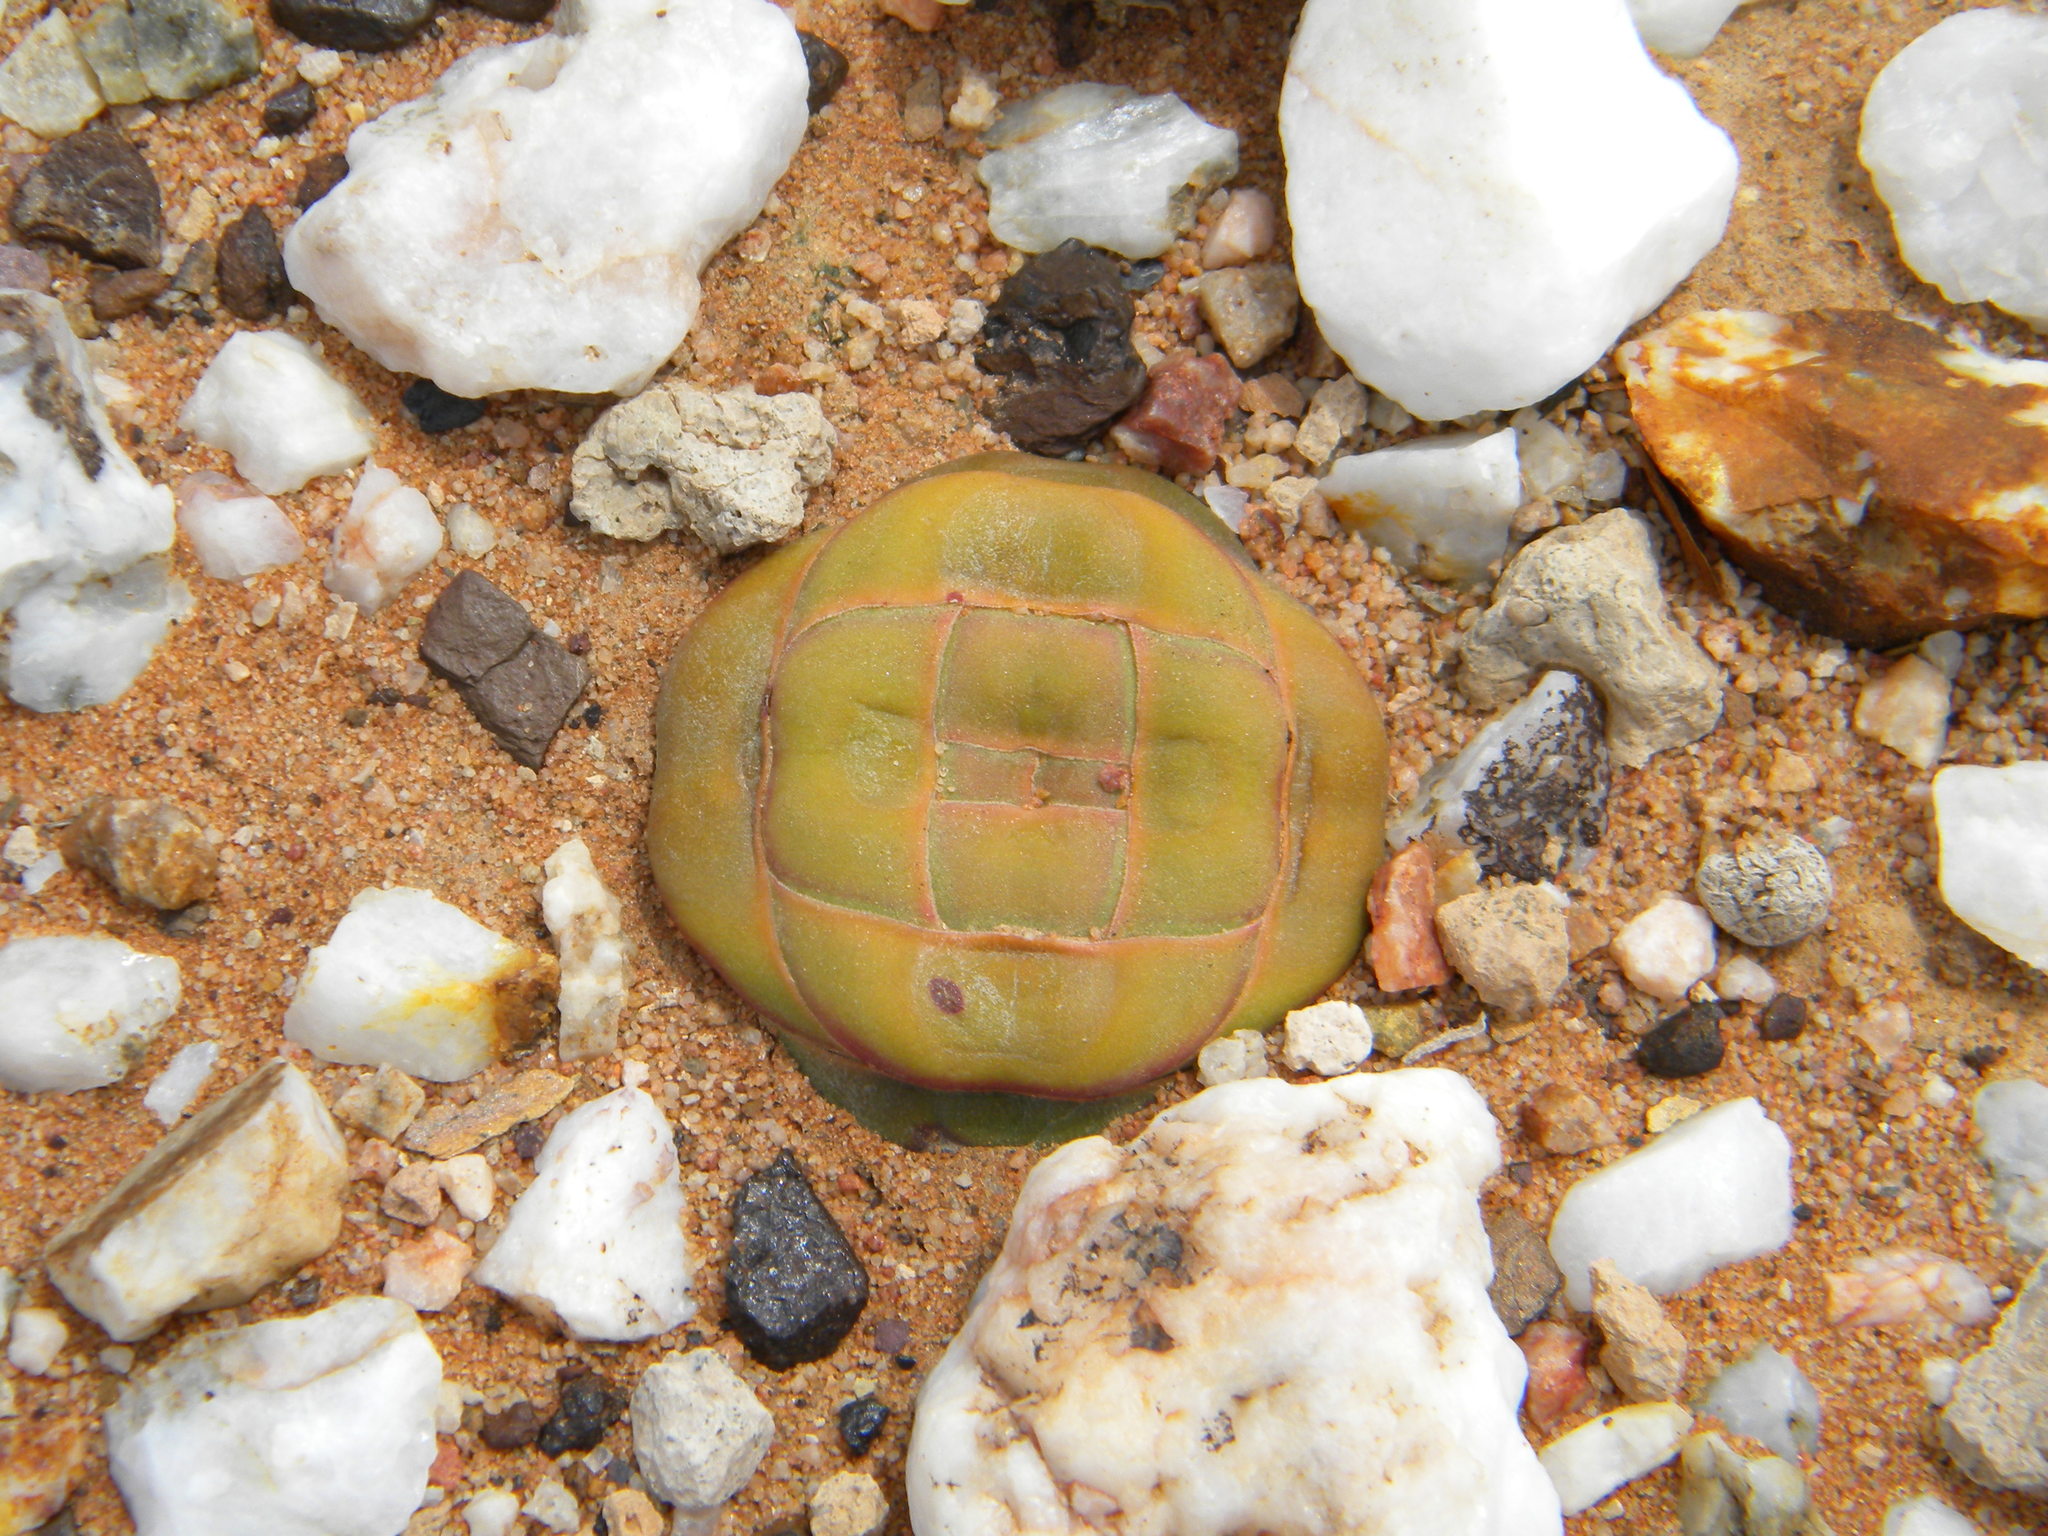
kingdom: Plantae
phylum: Tracheophyta
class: Magnoliopsida
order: Saxifragales
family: Crassulaceae
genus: Crassula
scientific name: Crassula columnaris
